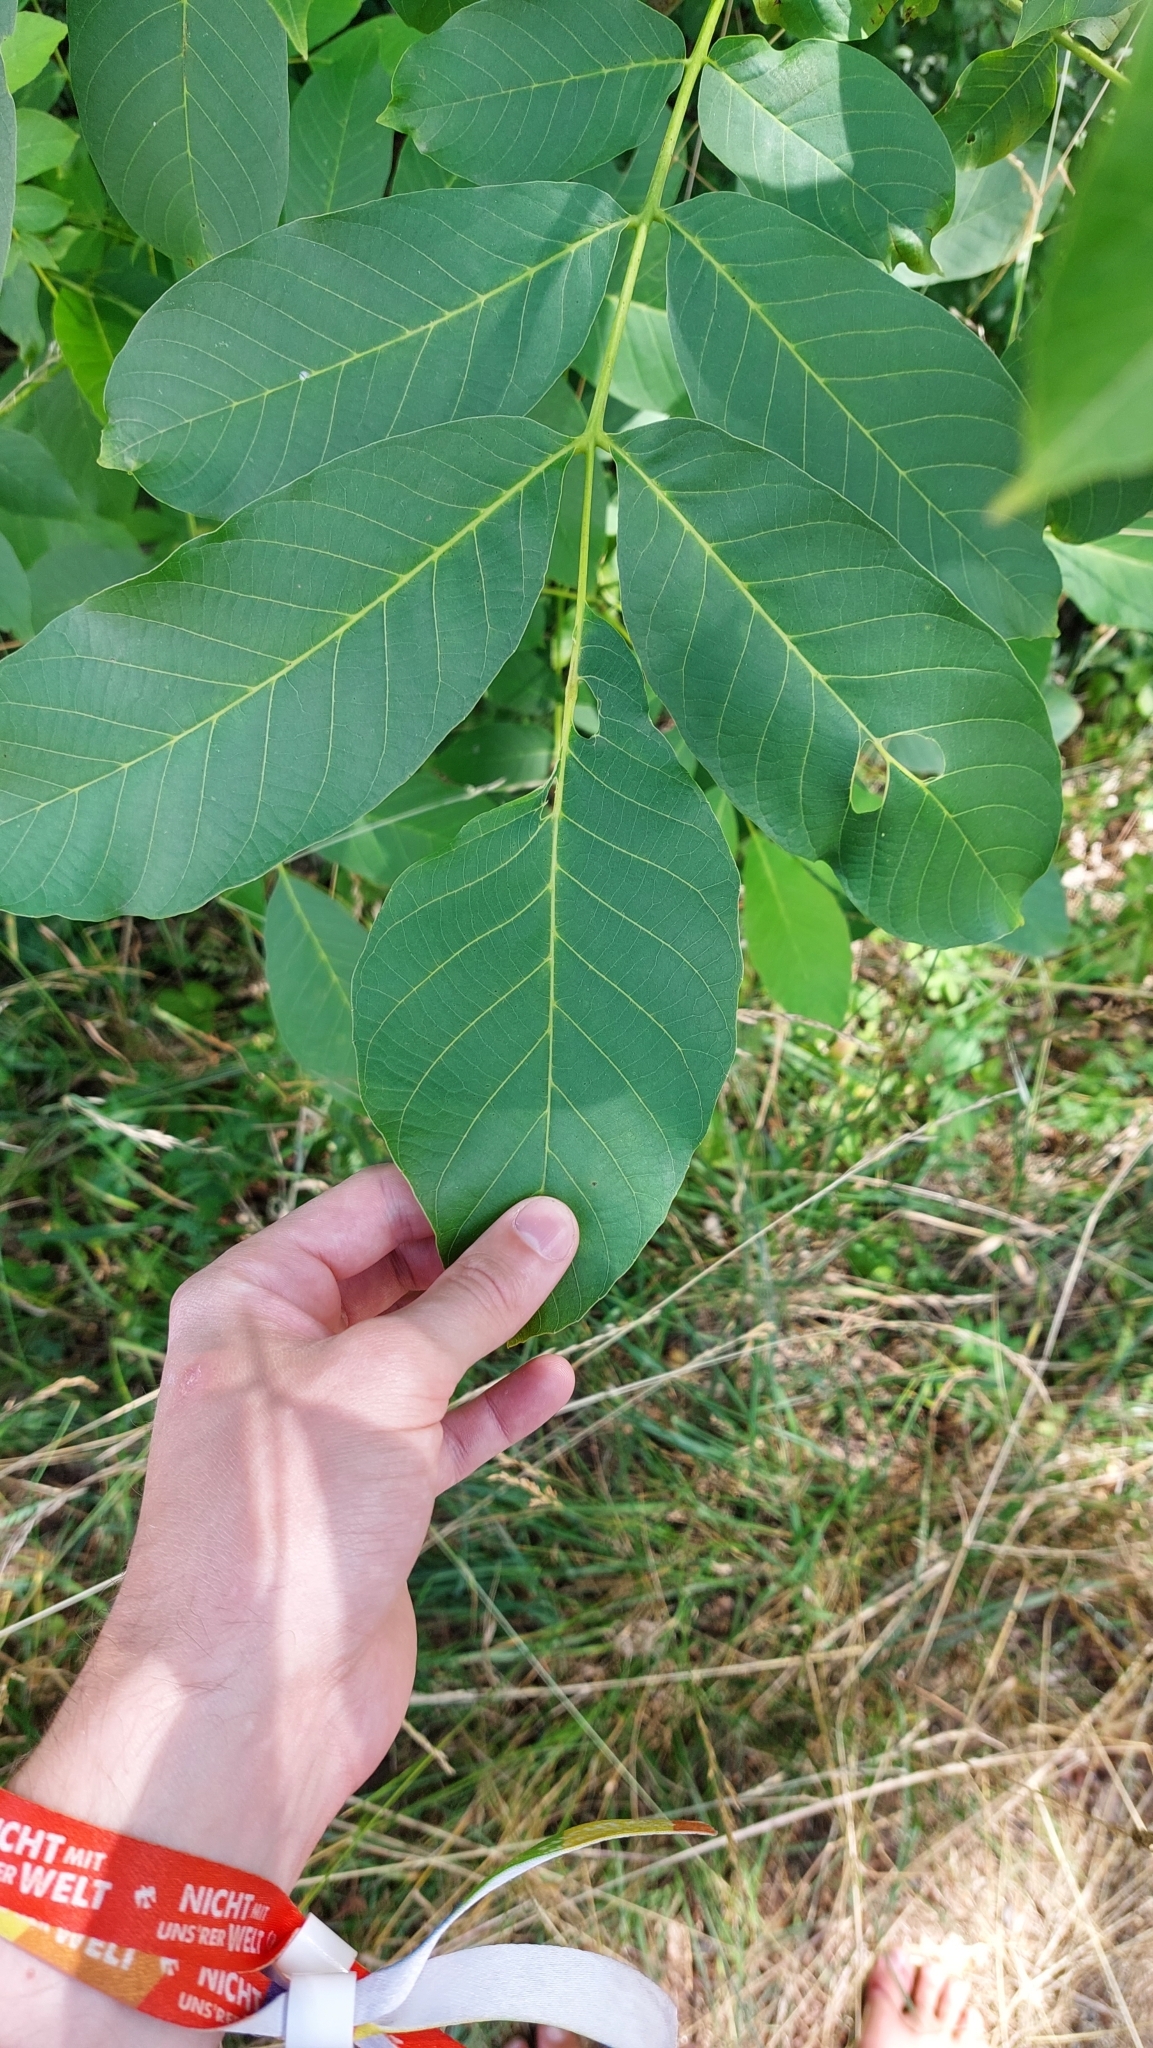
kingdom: Plantae
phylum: Tracheophyta
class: Magnoliopsida
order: Fagales
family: Juglandaceae
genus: Juglans
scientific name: Juglans regia
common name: Walnut
